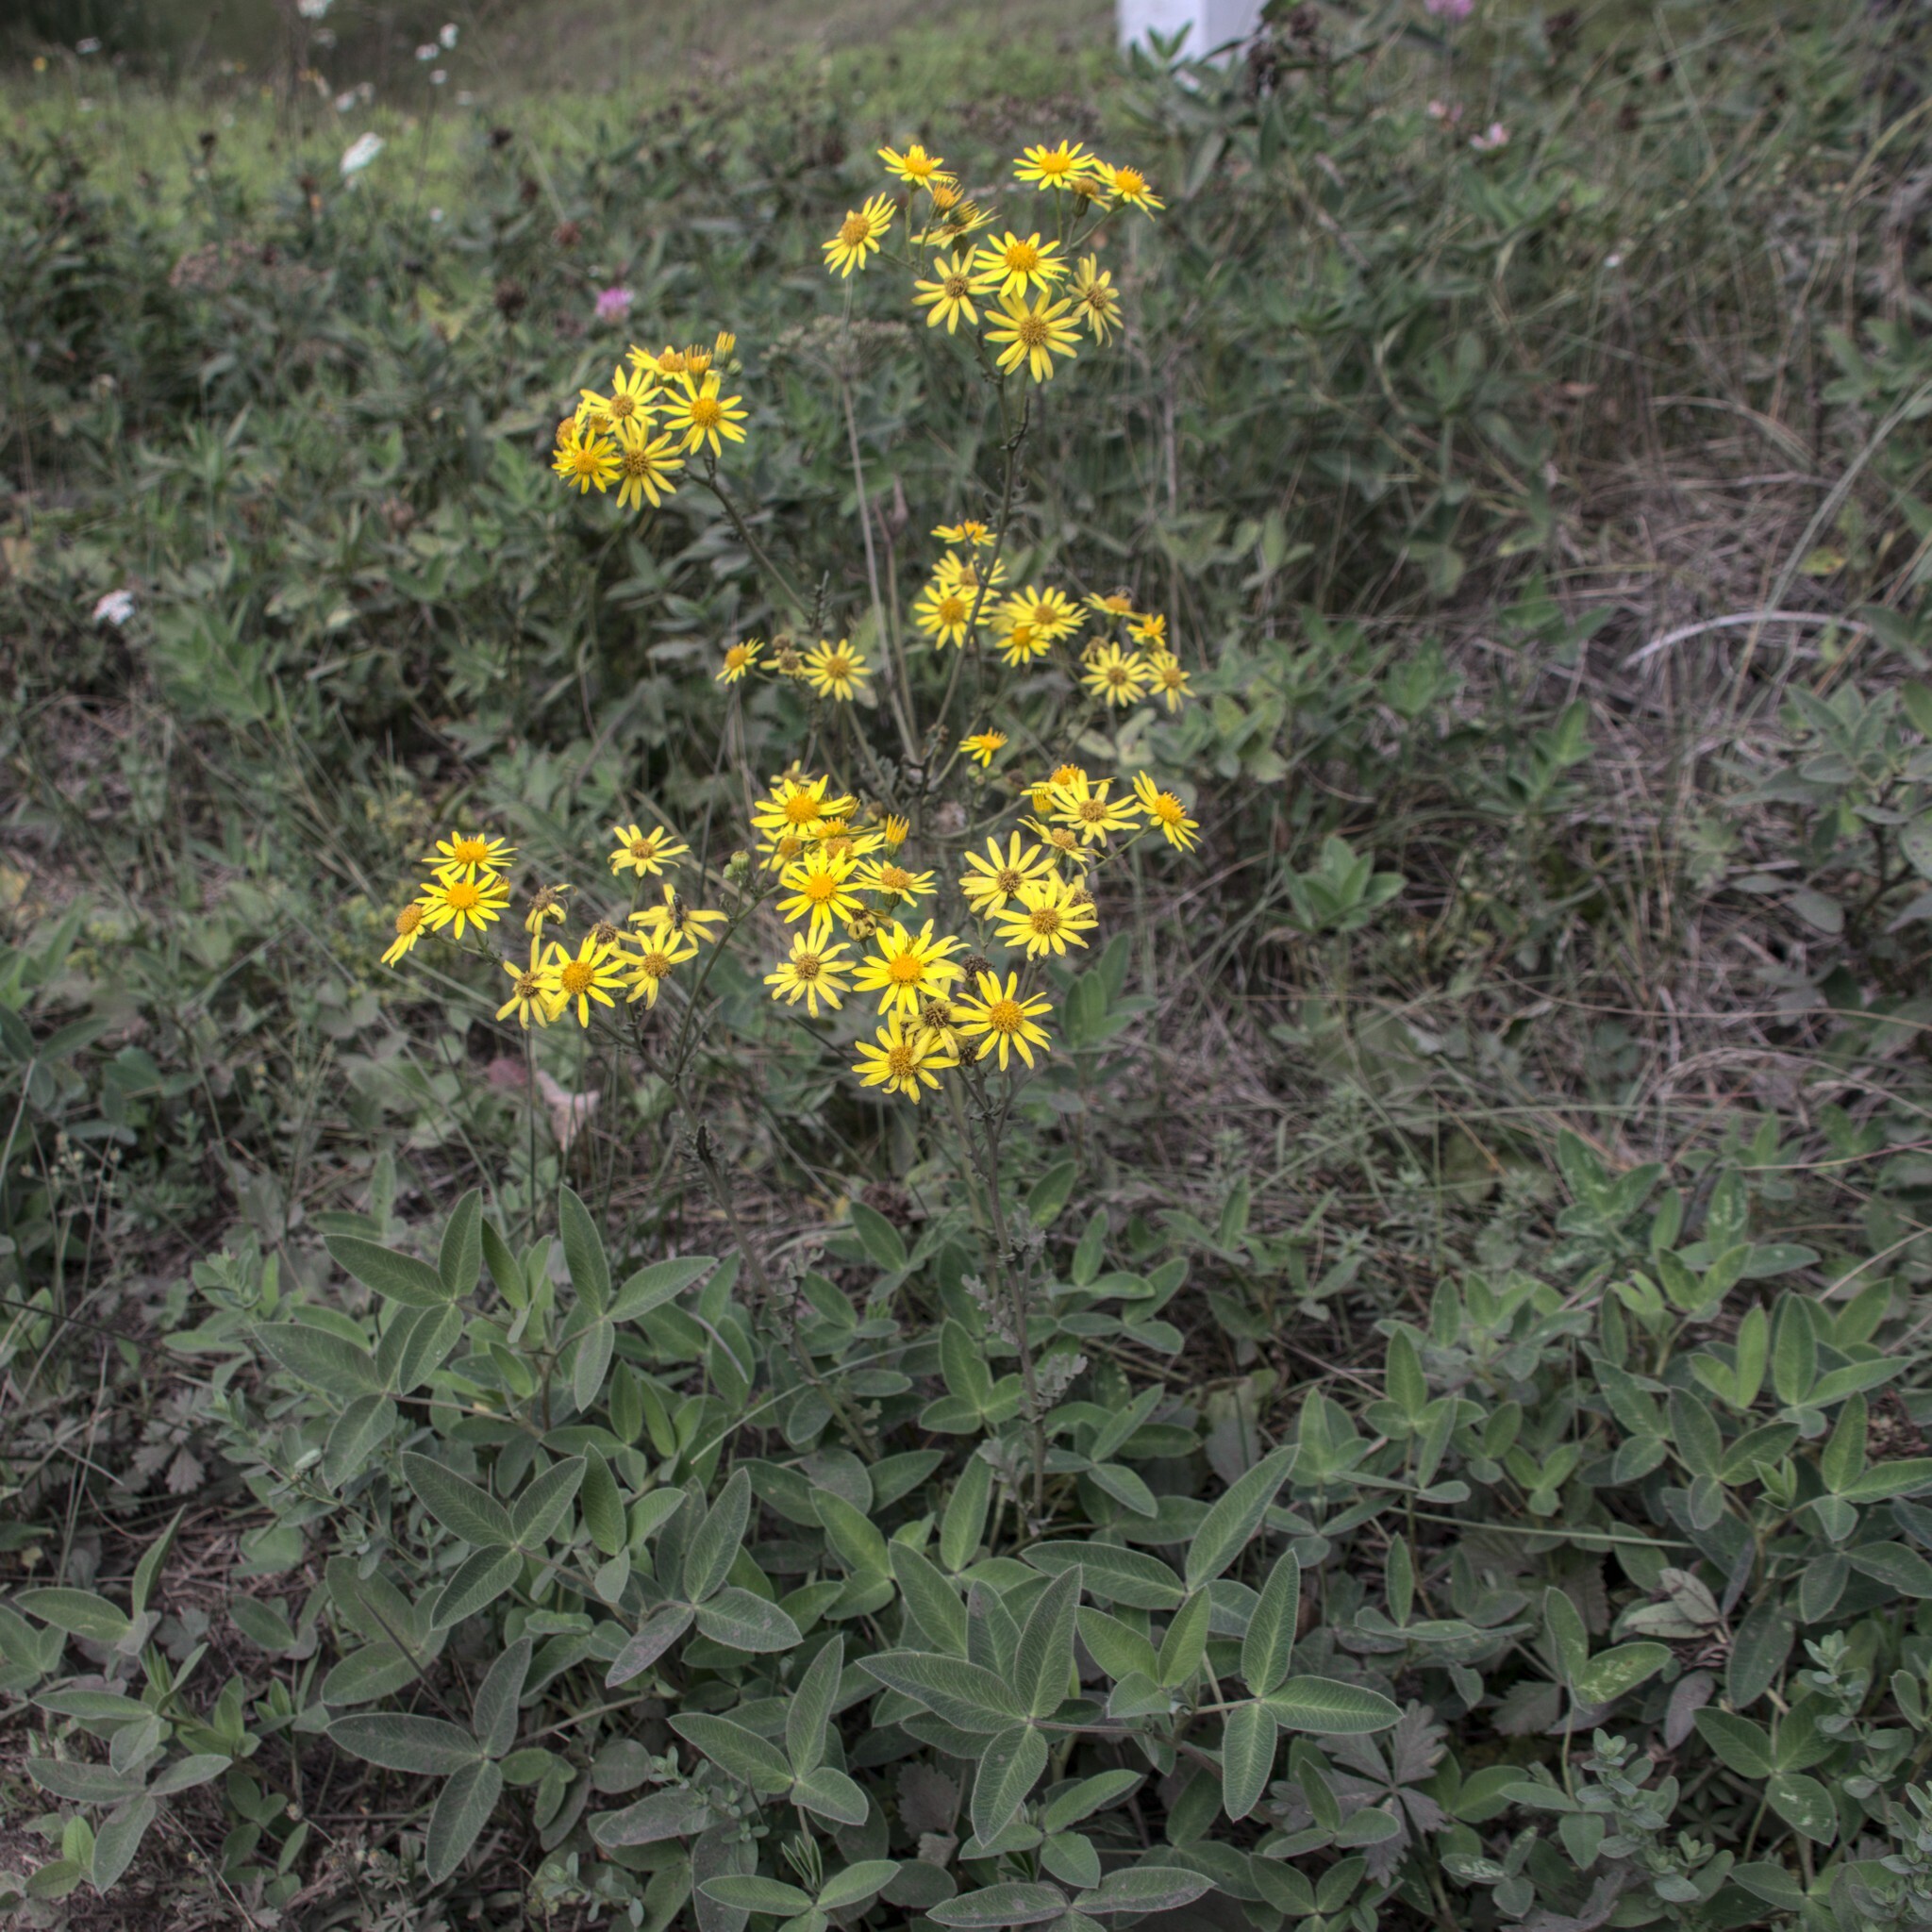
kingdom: Plantae
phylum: Tracheophyta
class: Magnoliopsida
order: Asterales
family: Asteraceae
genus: Jacobaea
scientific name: Jacobaea vulgaris
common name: Stinking willie
